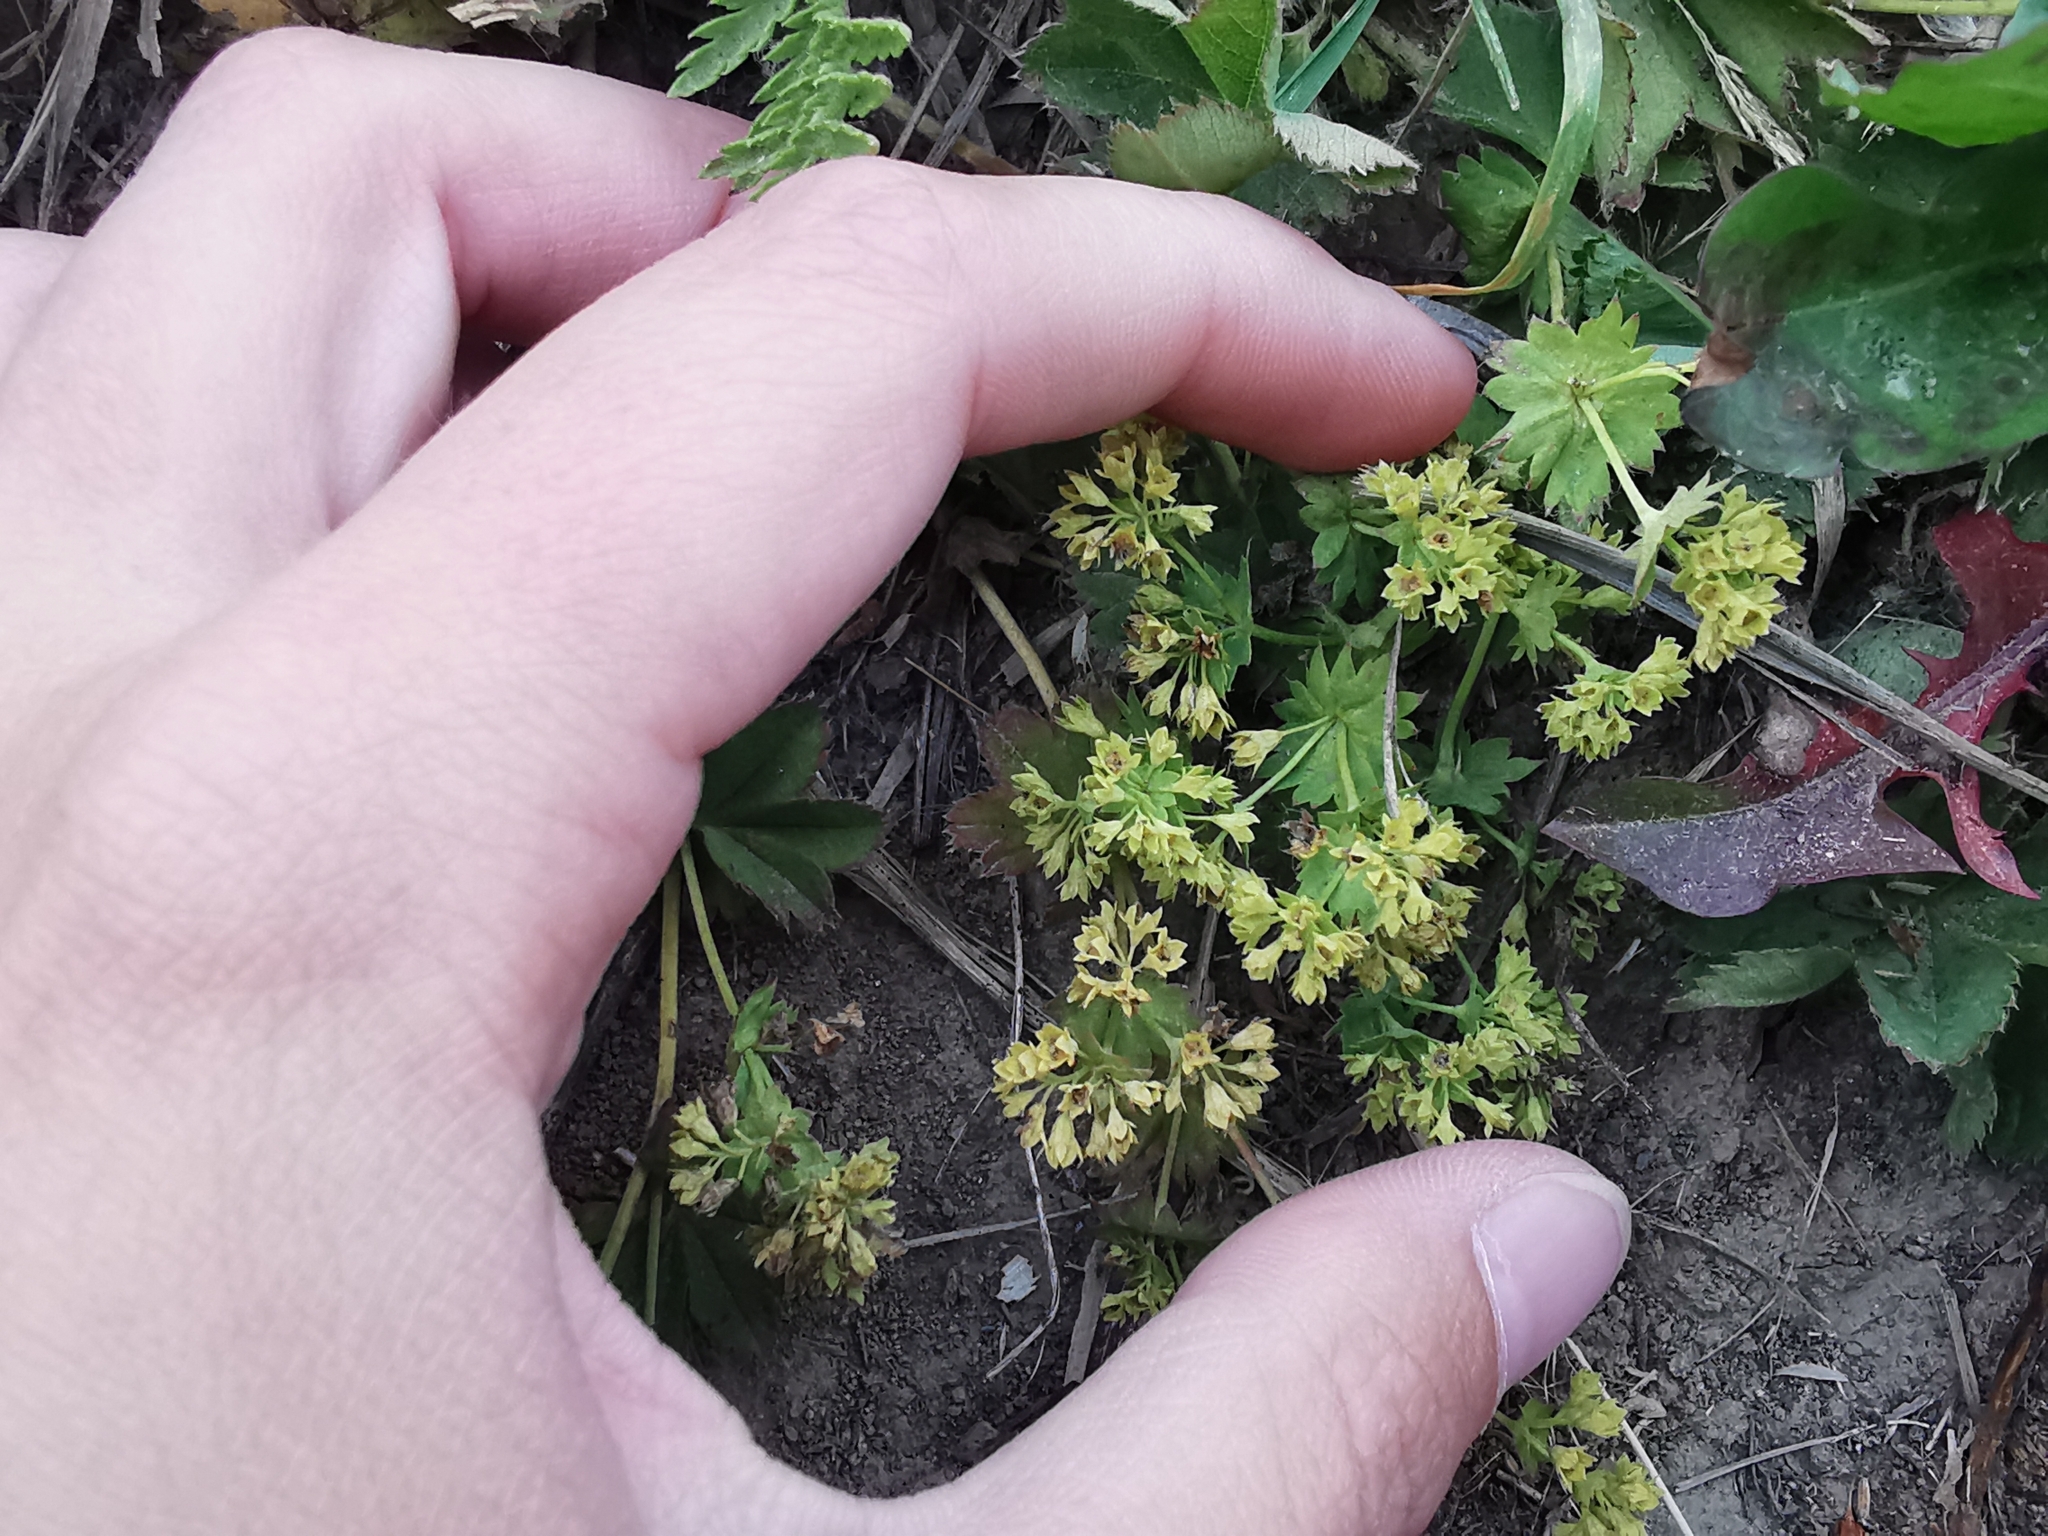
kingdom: Plantae
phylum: Tracheophyta
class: Magnoliopsida
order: Rosales
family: Rosaceae
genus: Alchemilla
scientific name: Alchemilla subcrenata
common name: Broadtooth lady's mantle
